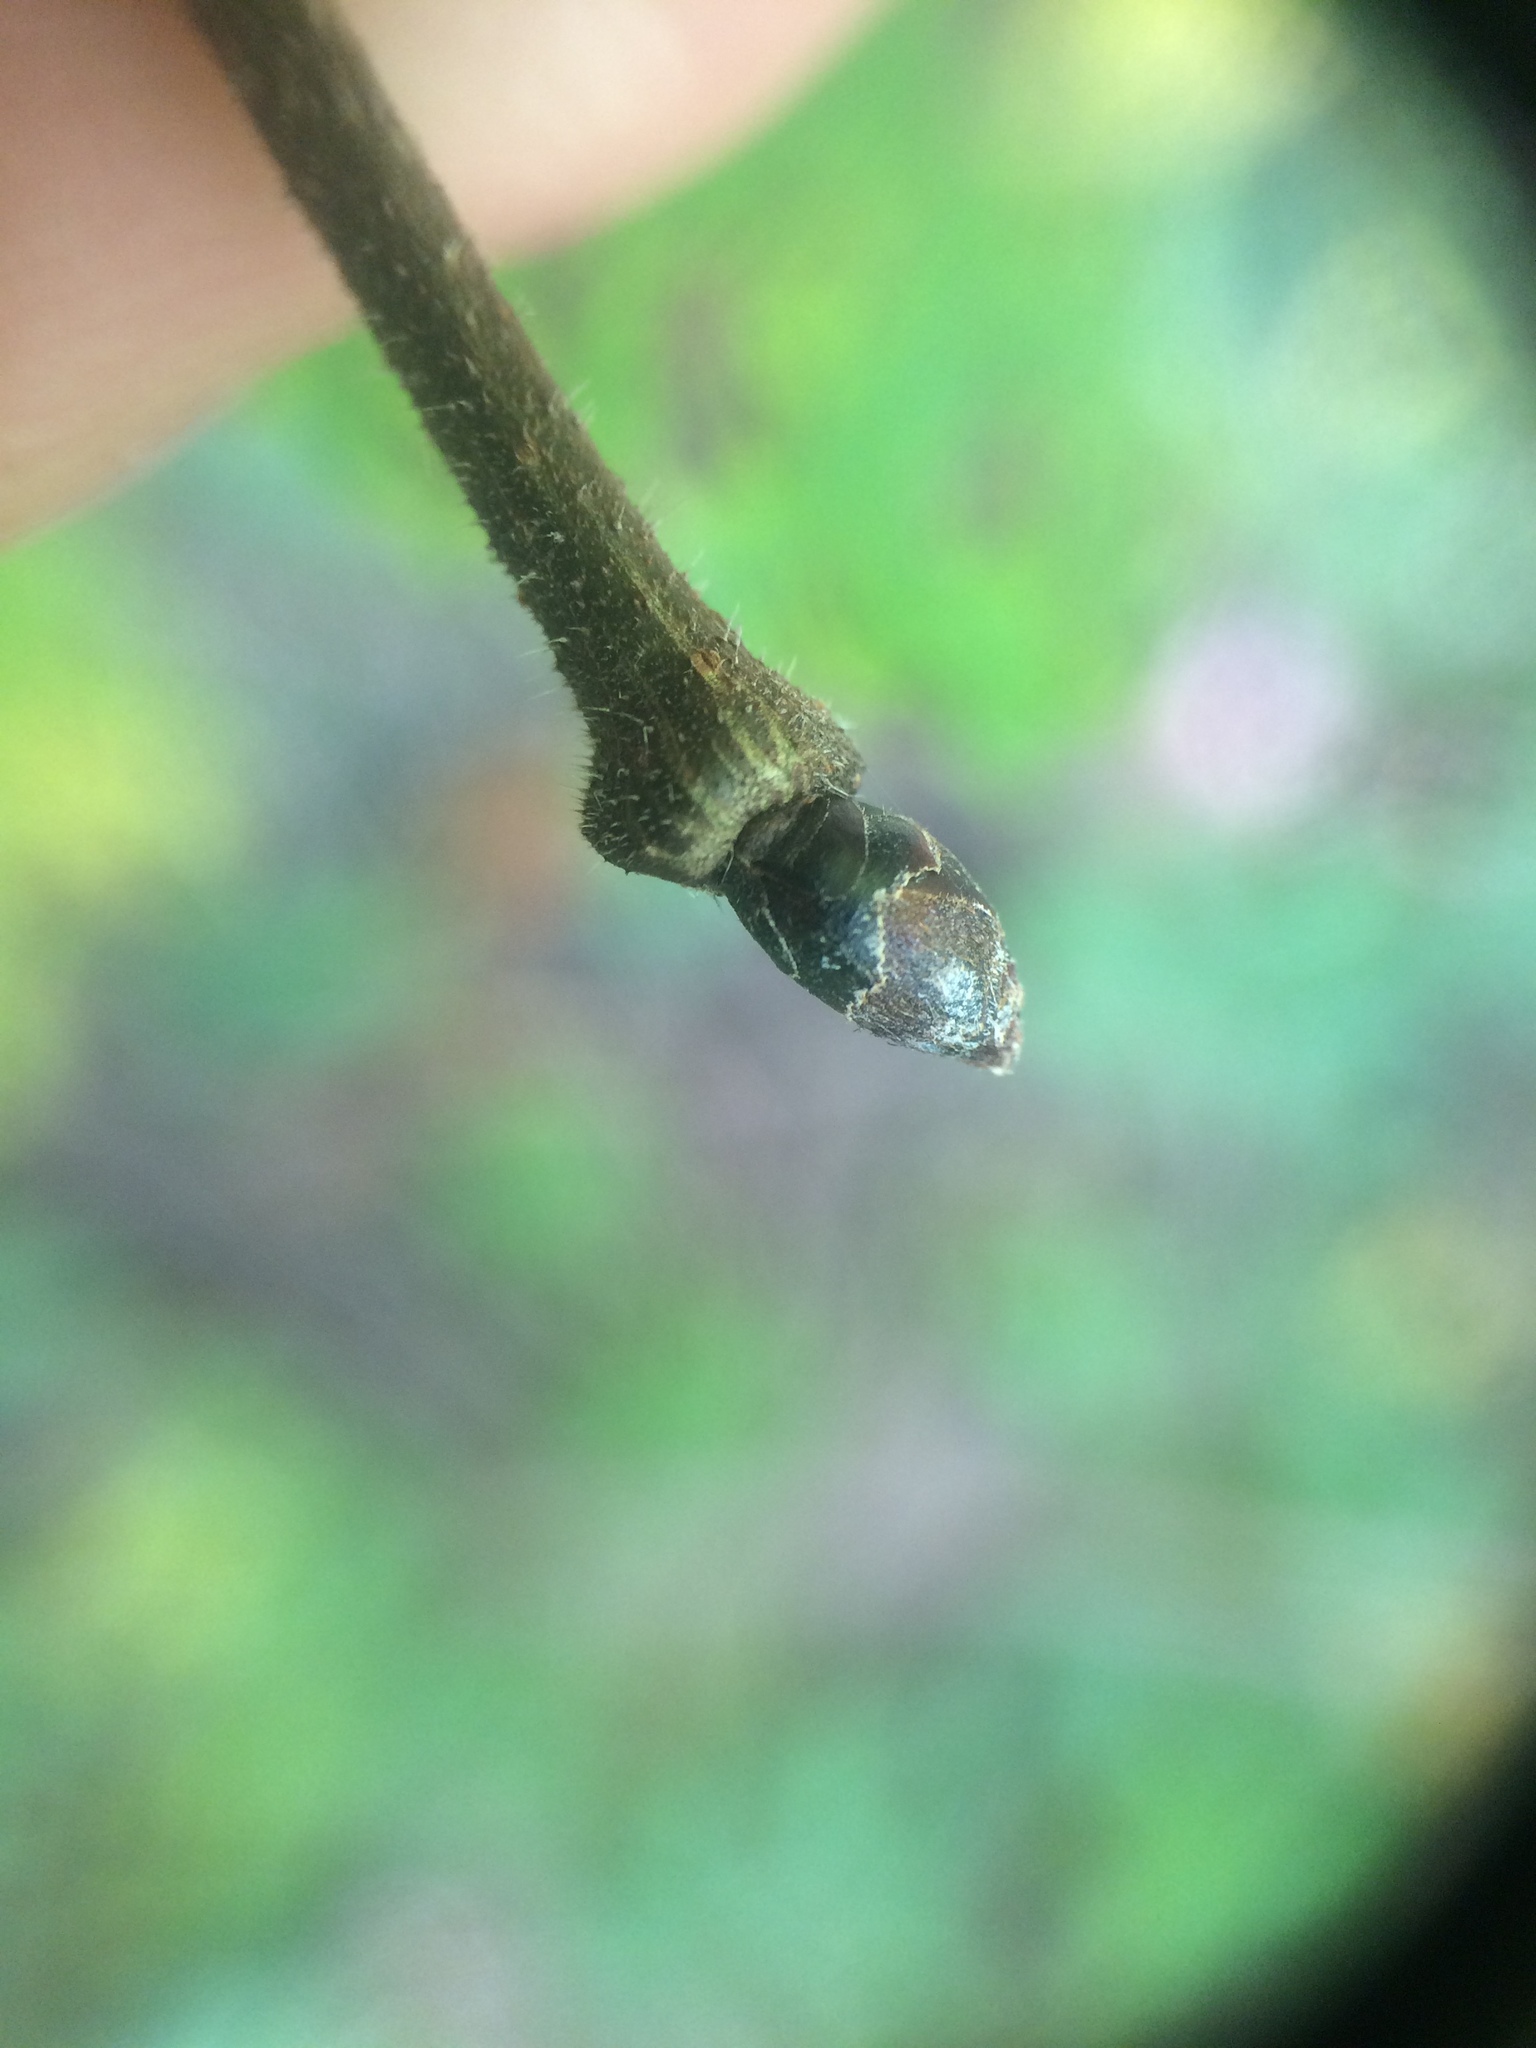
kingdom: Plantae
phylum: Tracheophyta
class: Magnoliopsida
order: Rosales
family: Ulmaceae
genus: Ulmus
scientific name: Ulmus rubra
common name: Slippery elm
